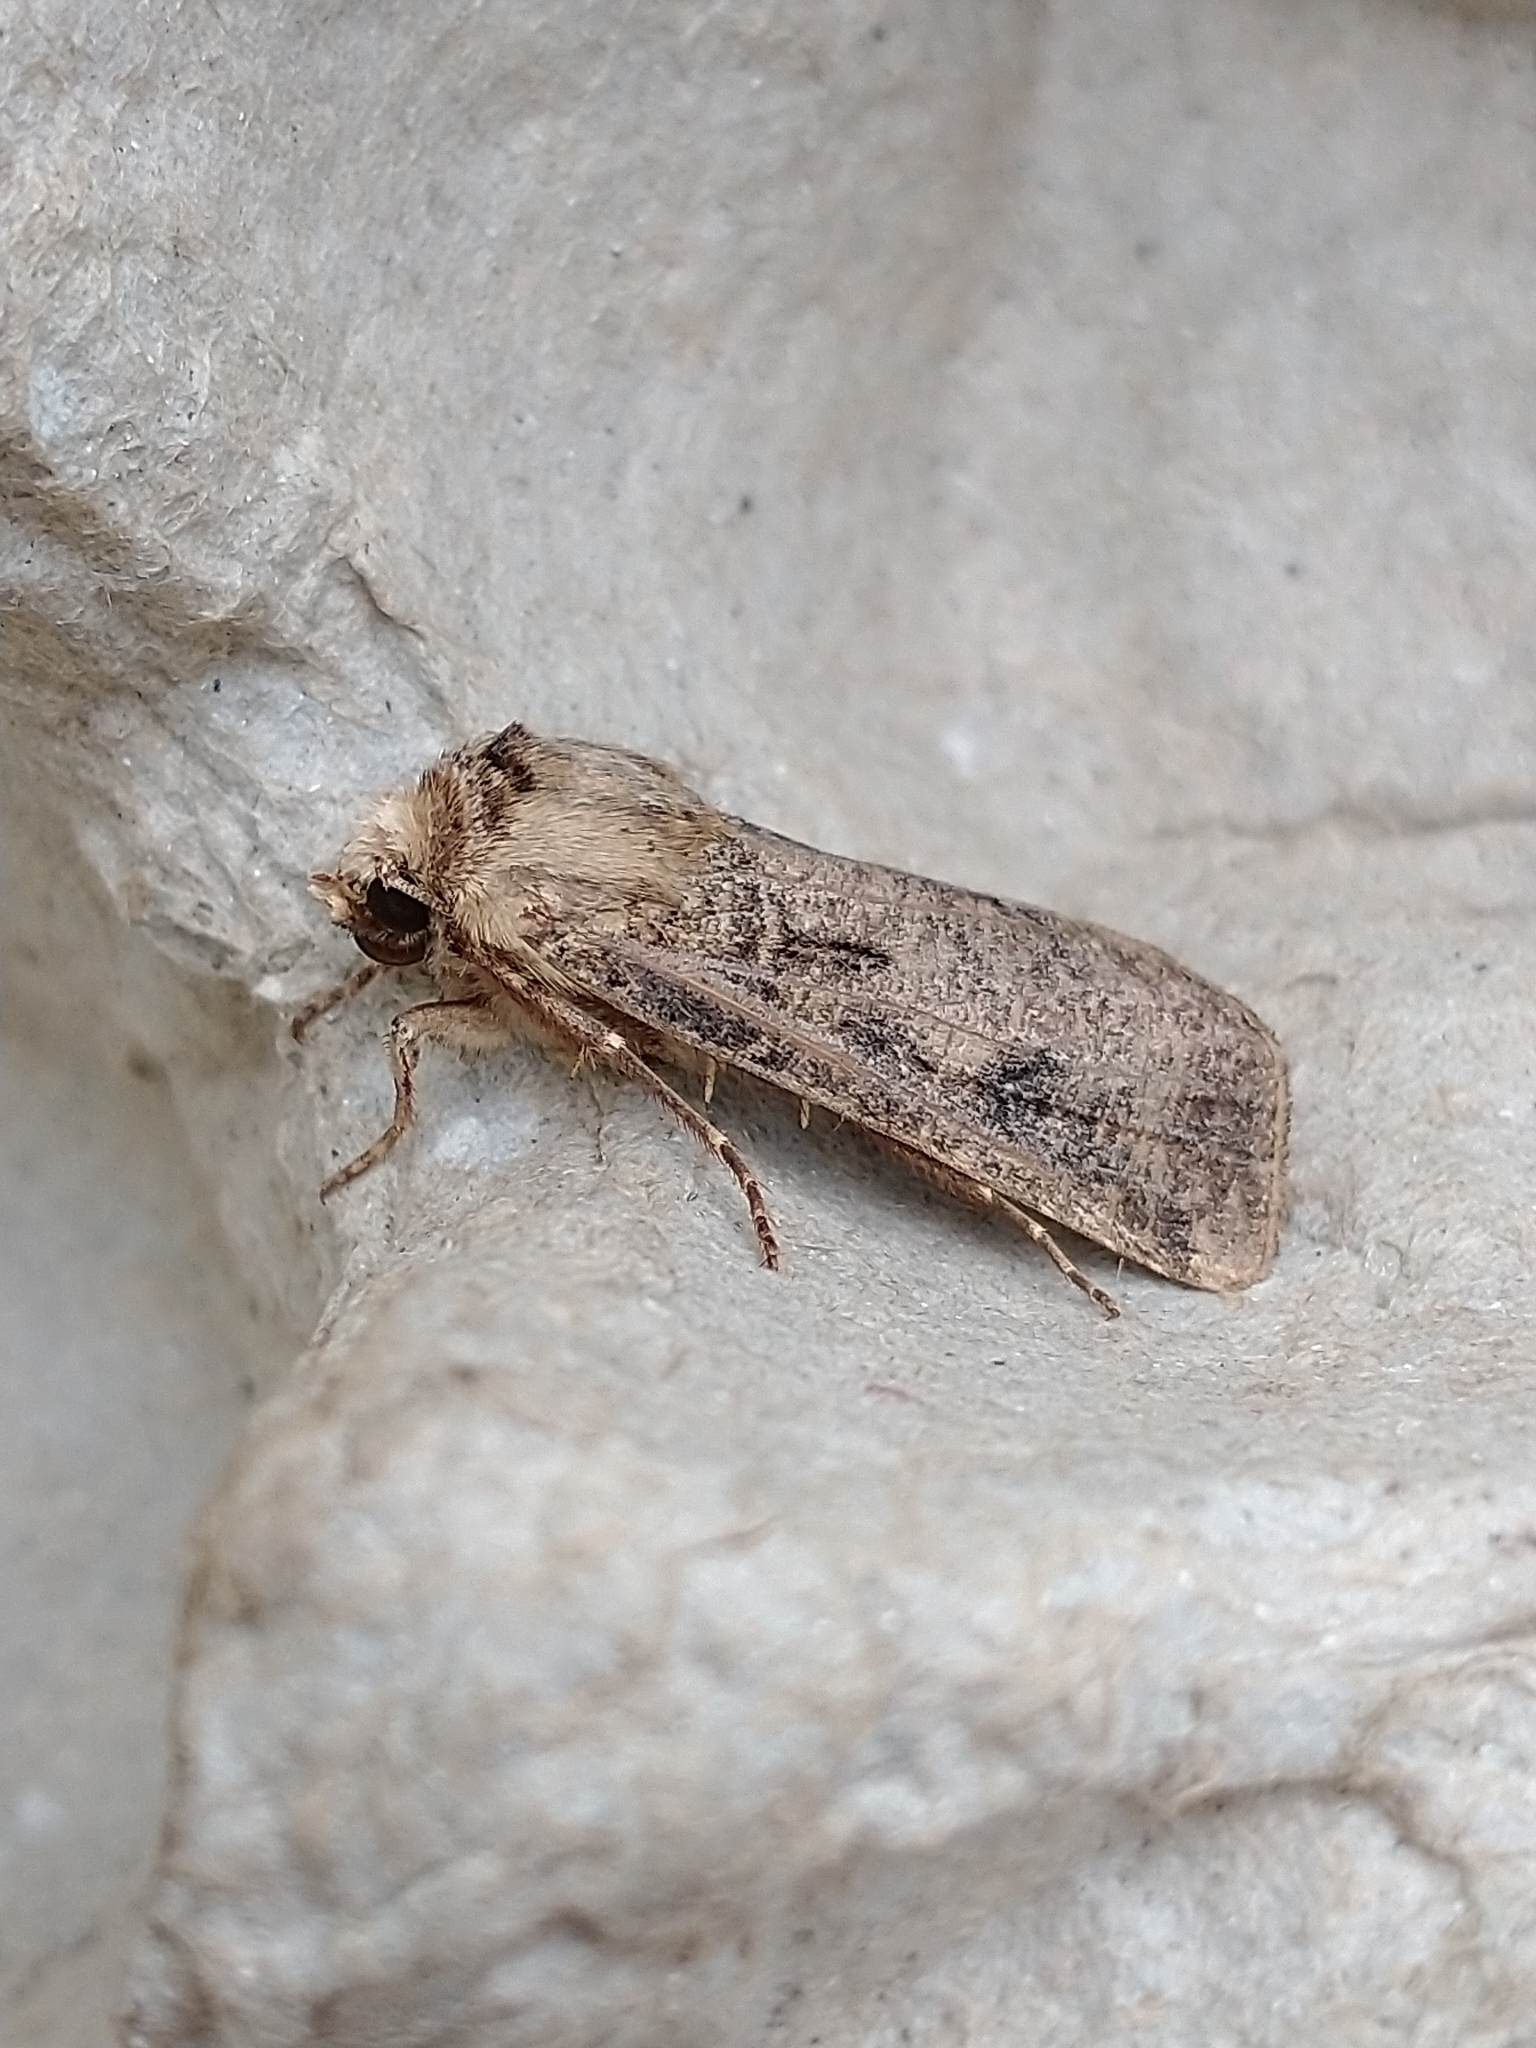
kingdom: Animalia
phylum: Arthropoda
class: Insecta
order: Lepidoptera
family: Noctuidae
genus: Agrotis
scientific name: Agrotis clavis
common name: Heart and club
